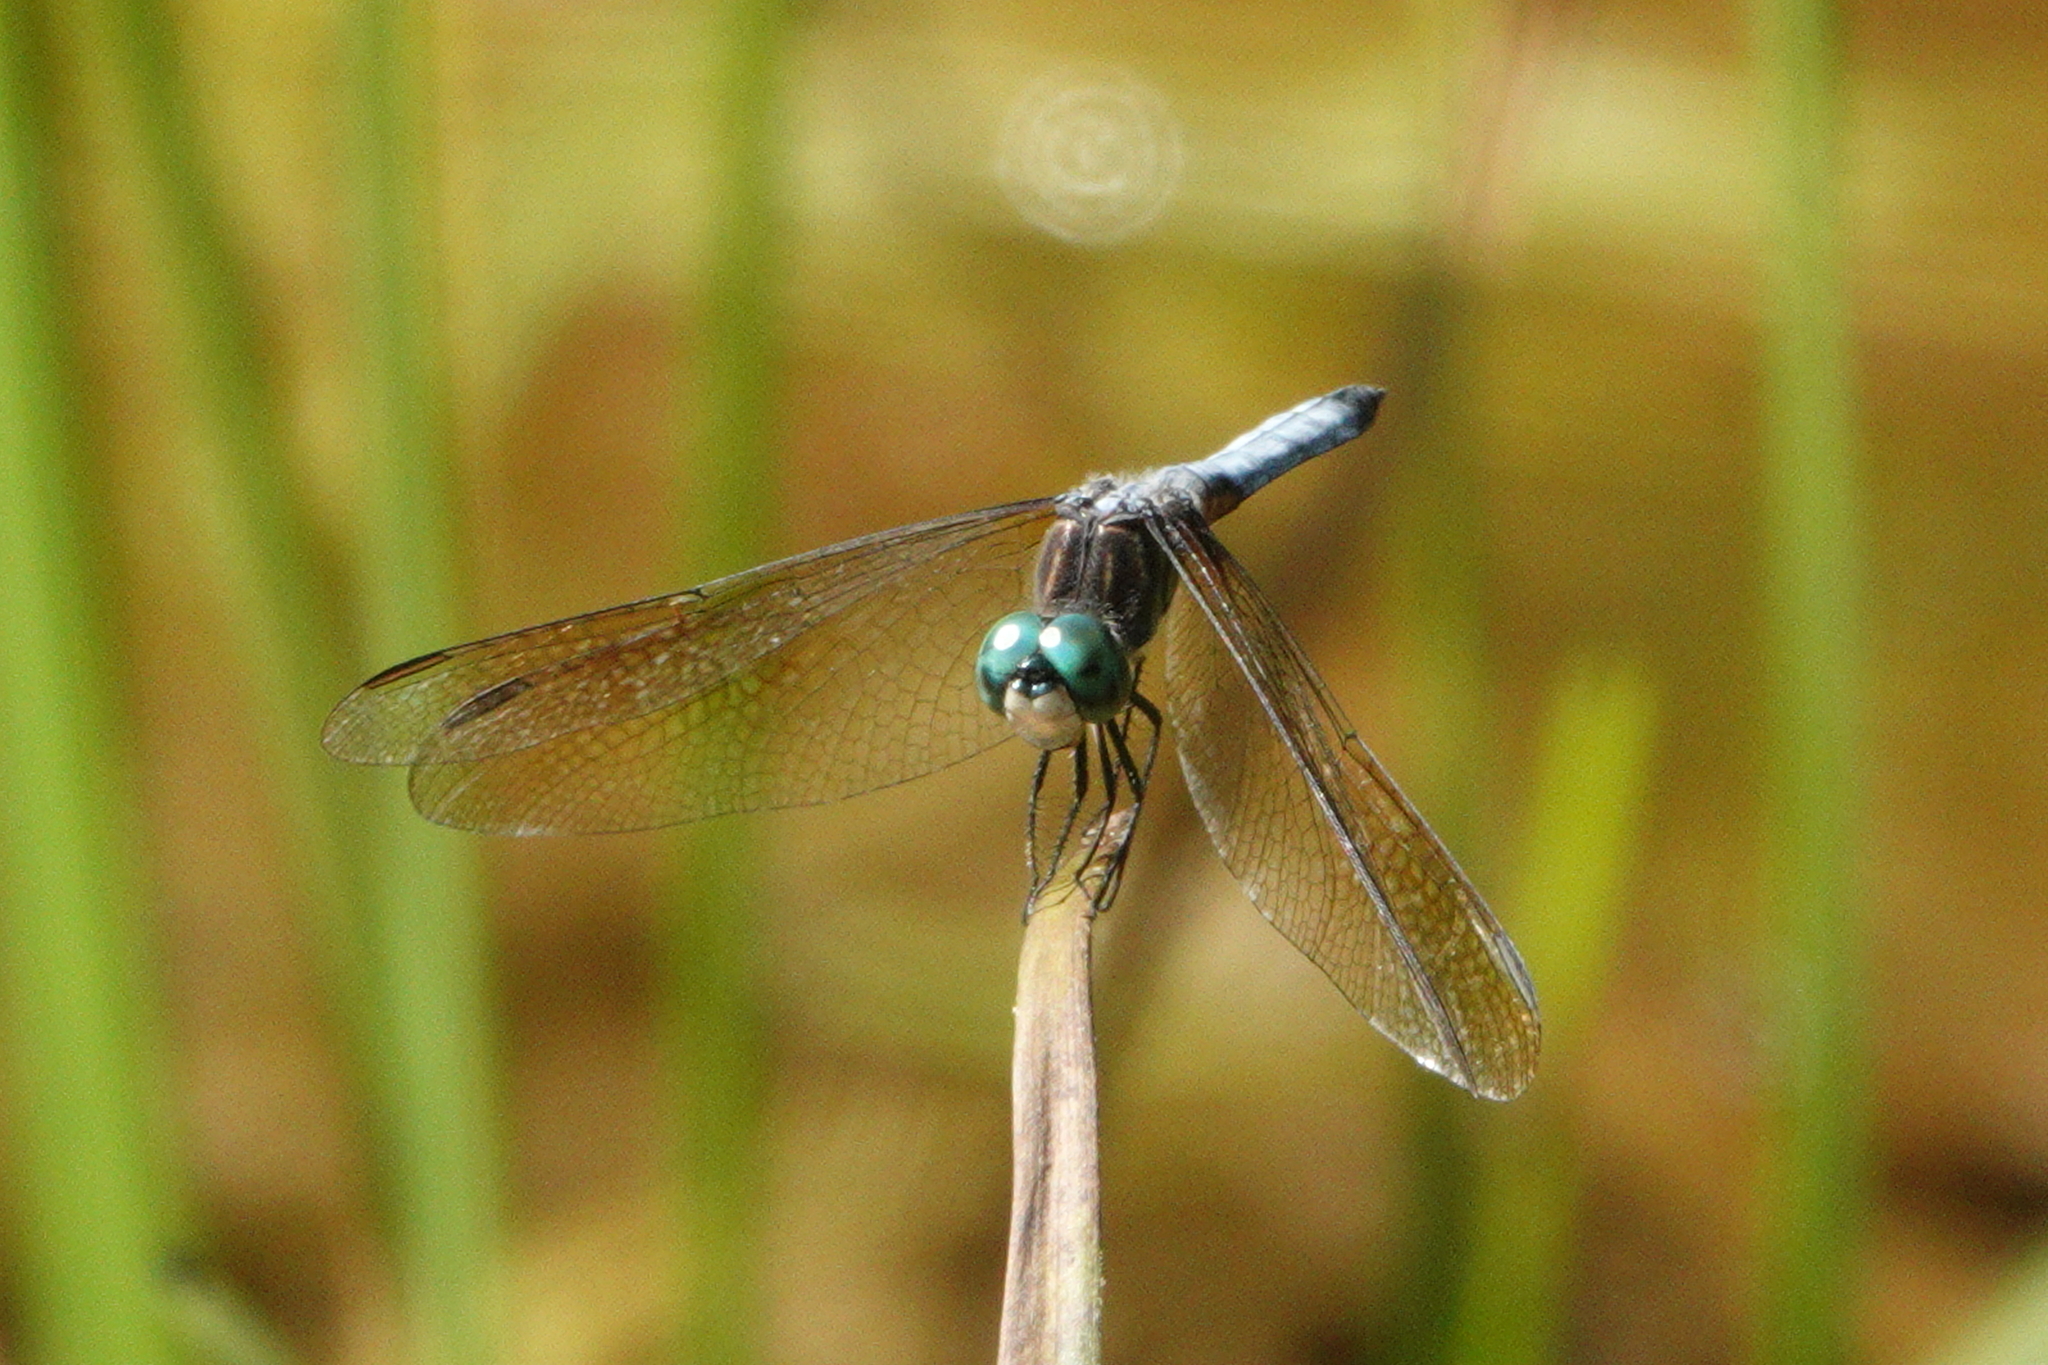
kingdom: Animalia
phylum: Arthropoda
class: Insecta
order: Odonata
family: Libellulidae
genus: Pachydiplax
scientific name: Pachydiplax longipennis
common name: Blue dasher
